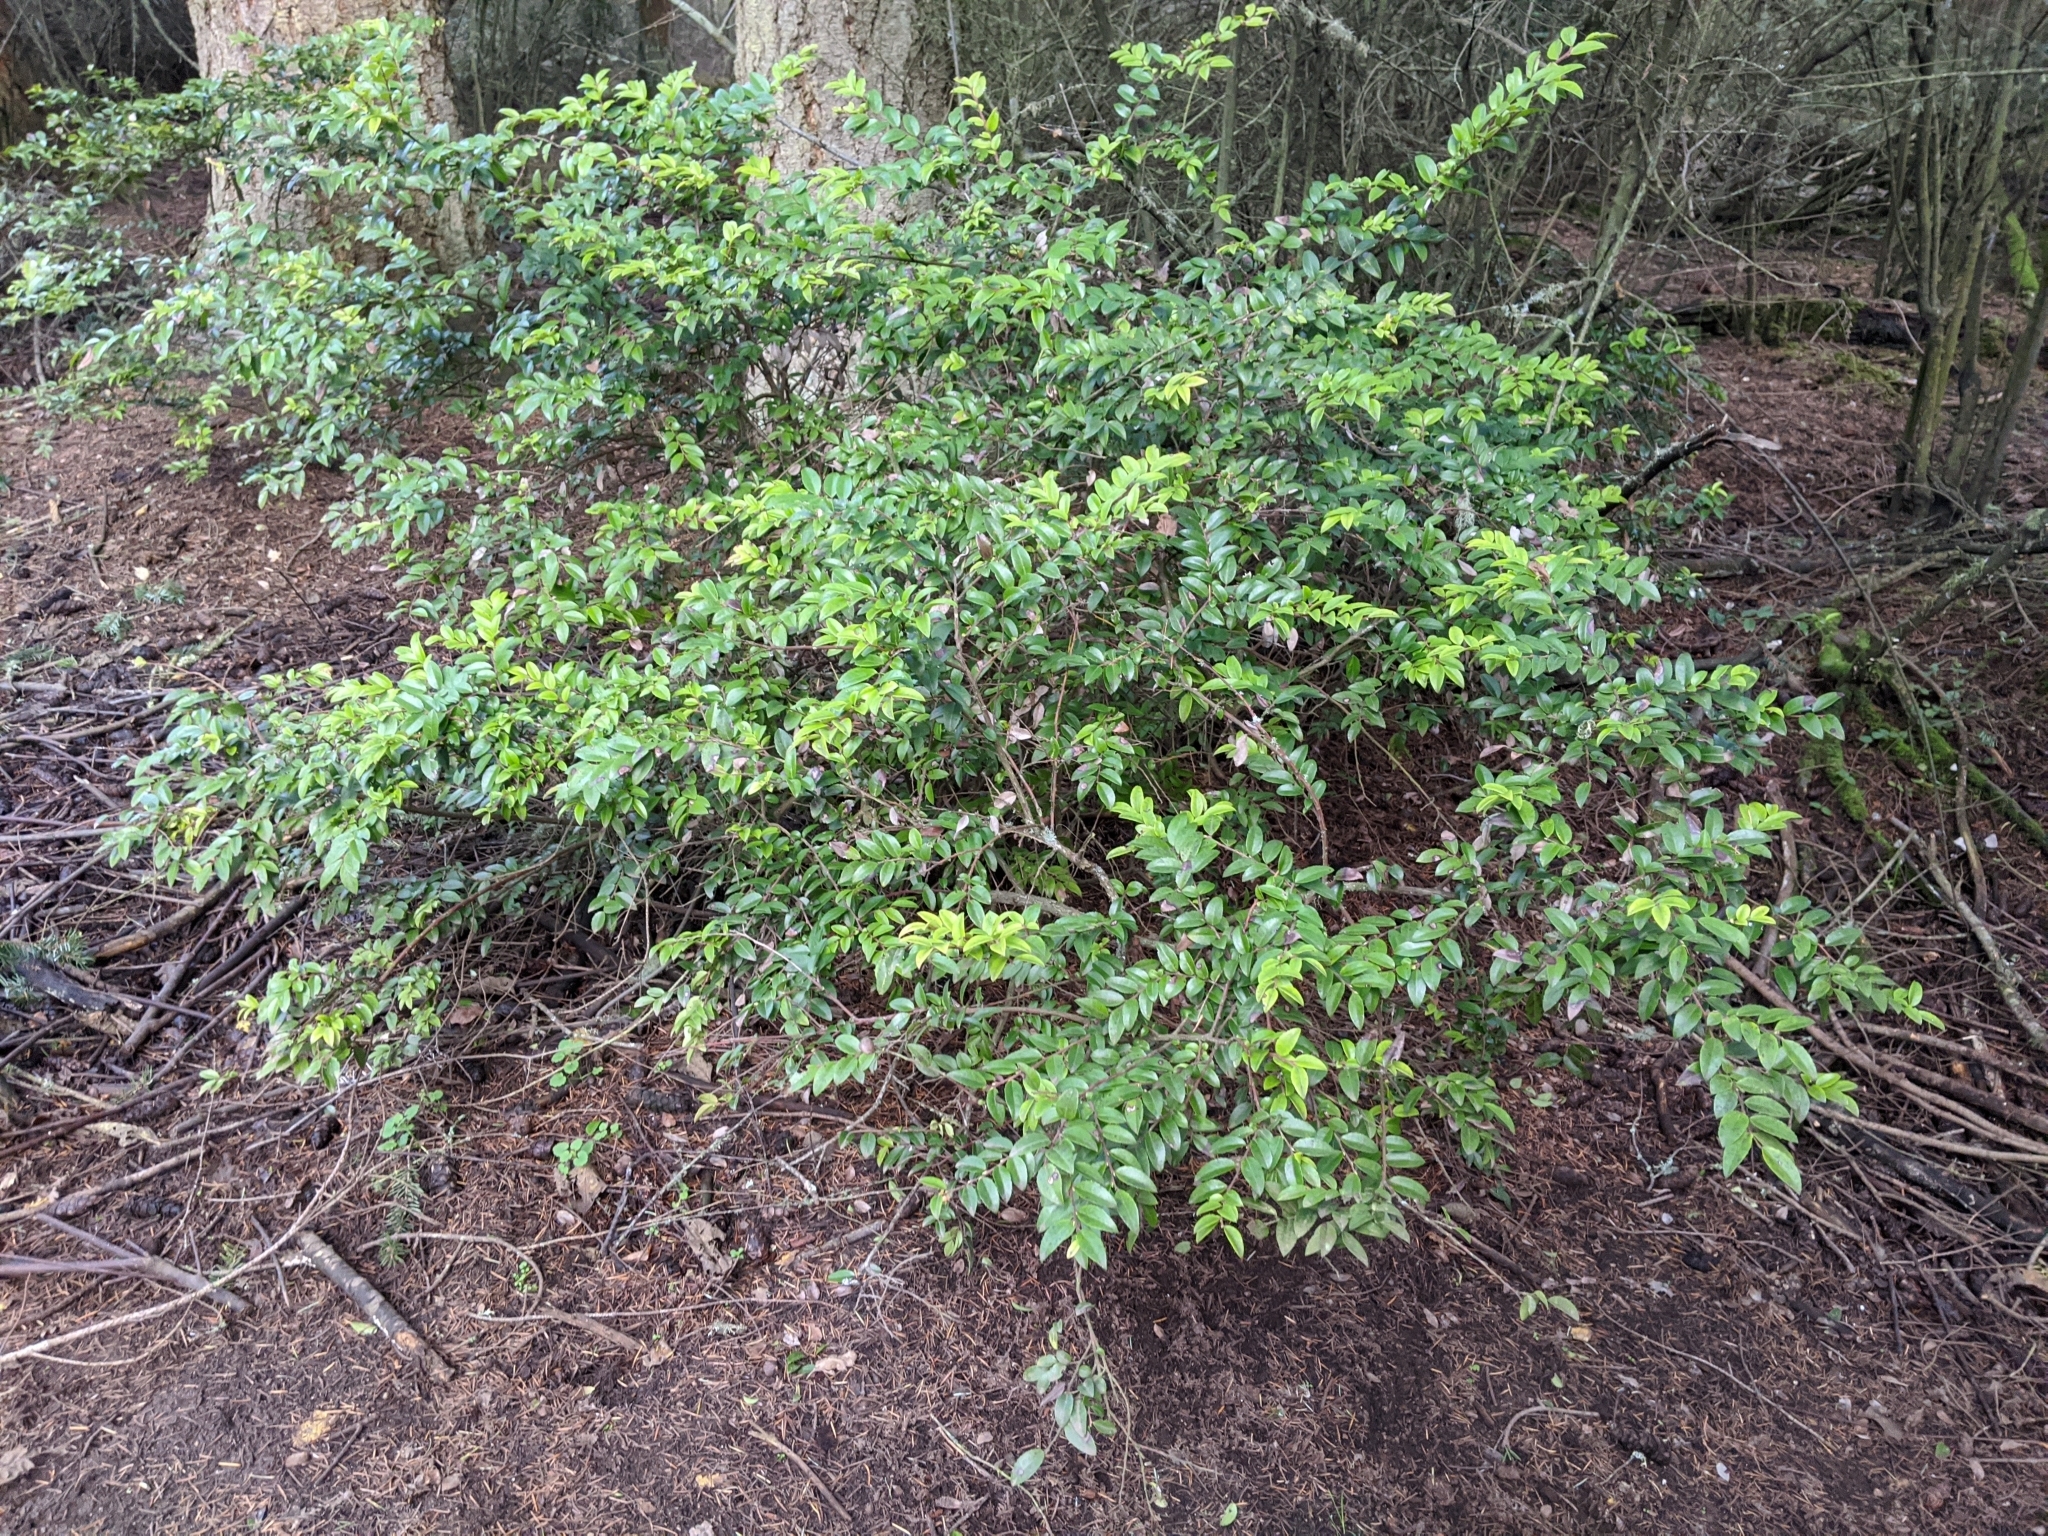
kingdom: Plantae
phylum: Tracheophyta
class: Magnoliopsida
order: Ericales
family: Ericaceae
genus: Vaccinium
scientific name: Vaccinium ovatum
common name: California-huckleberry
